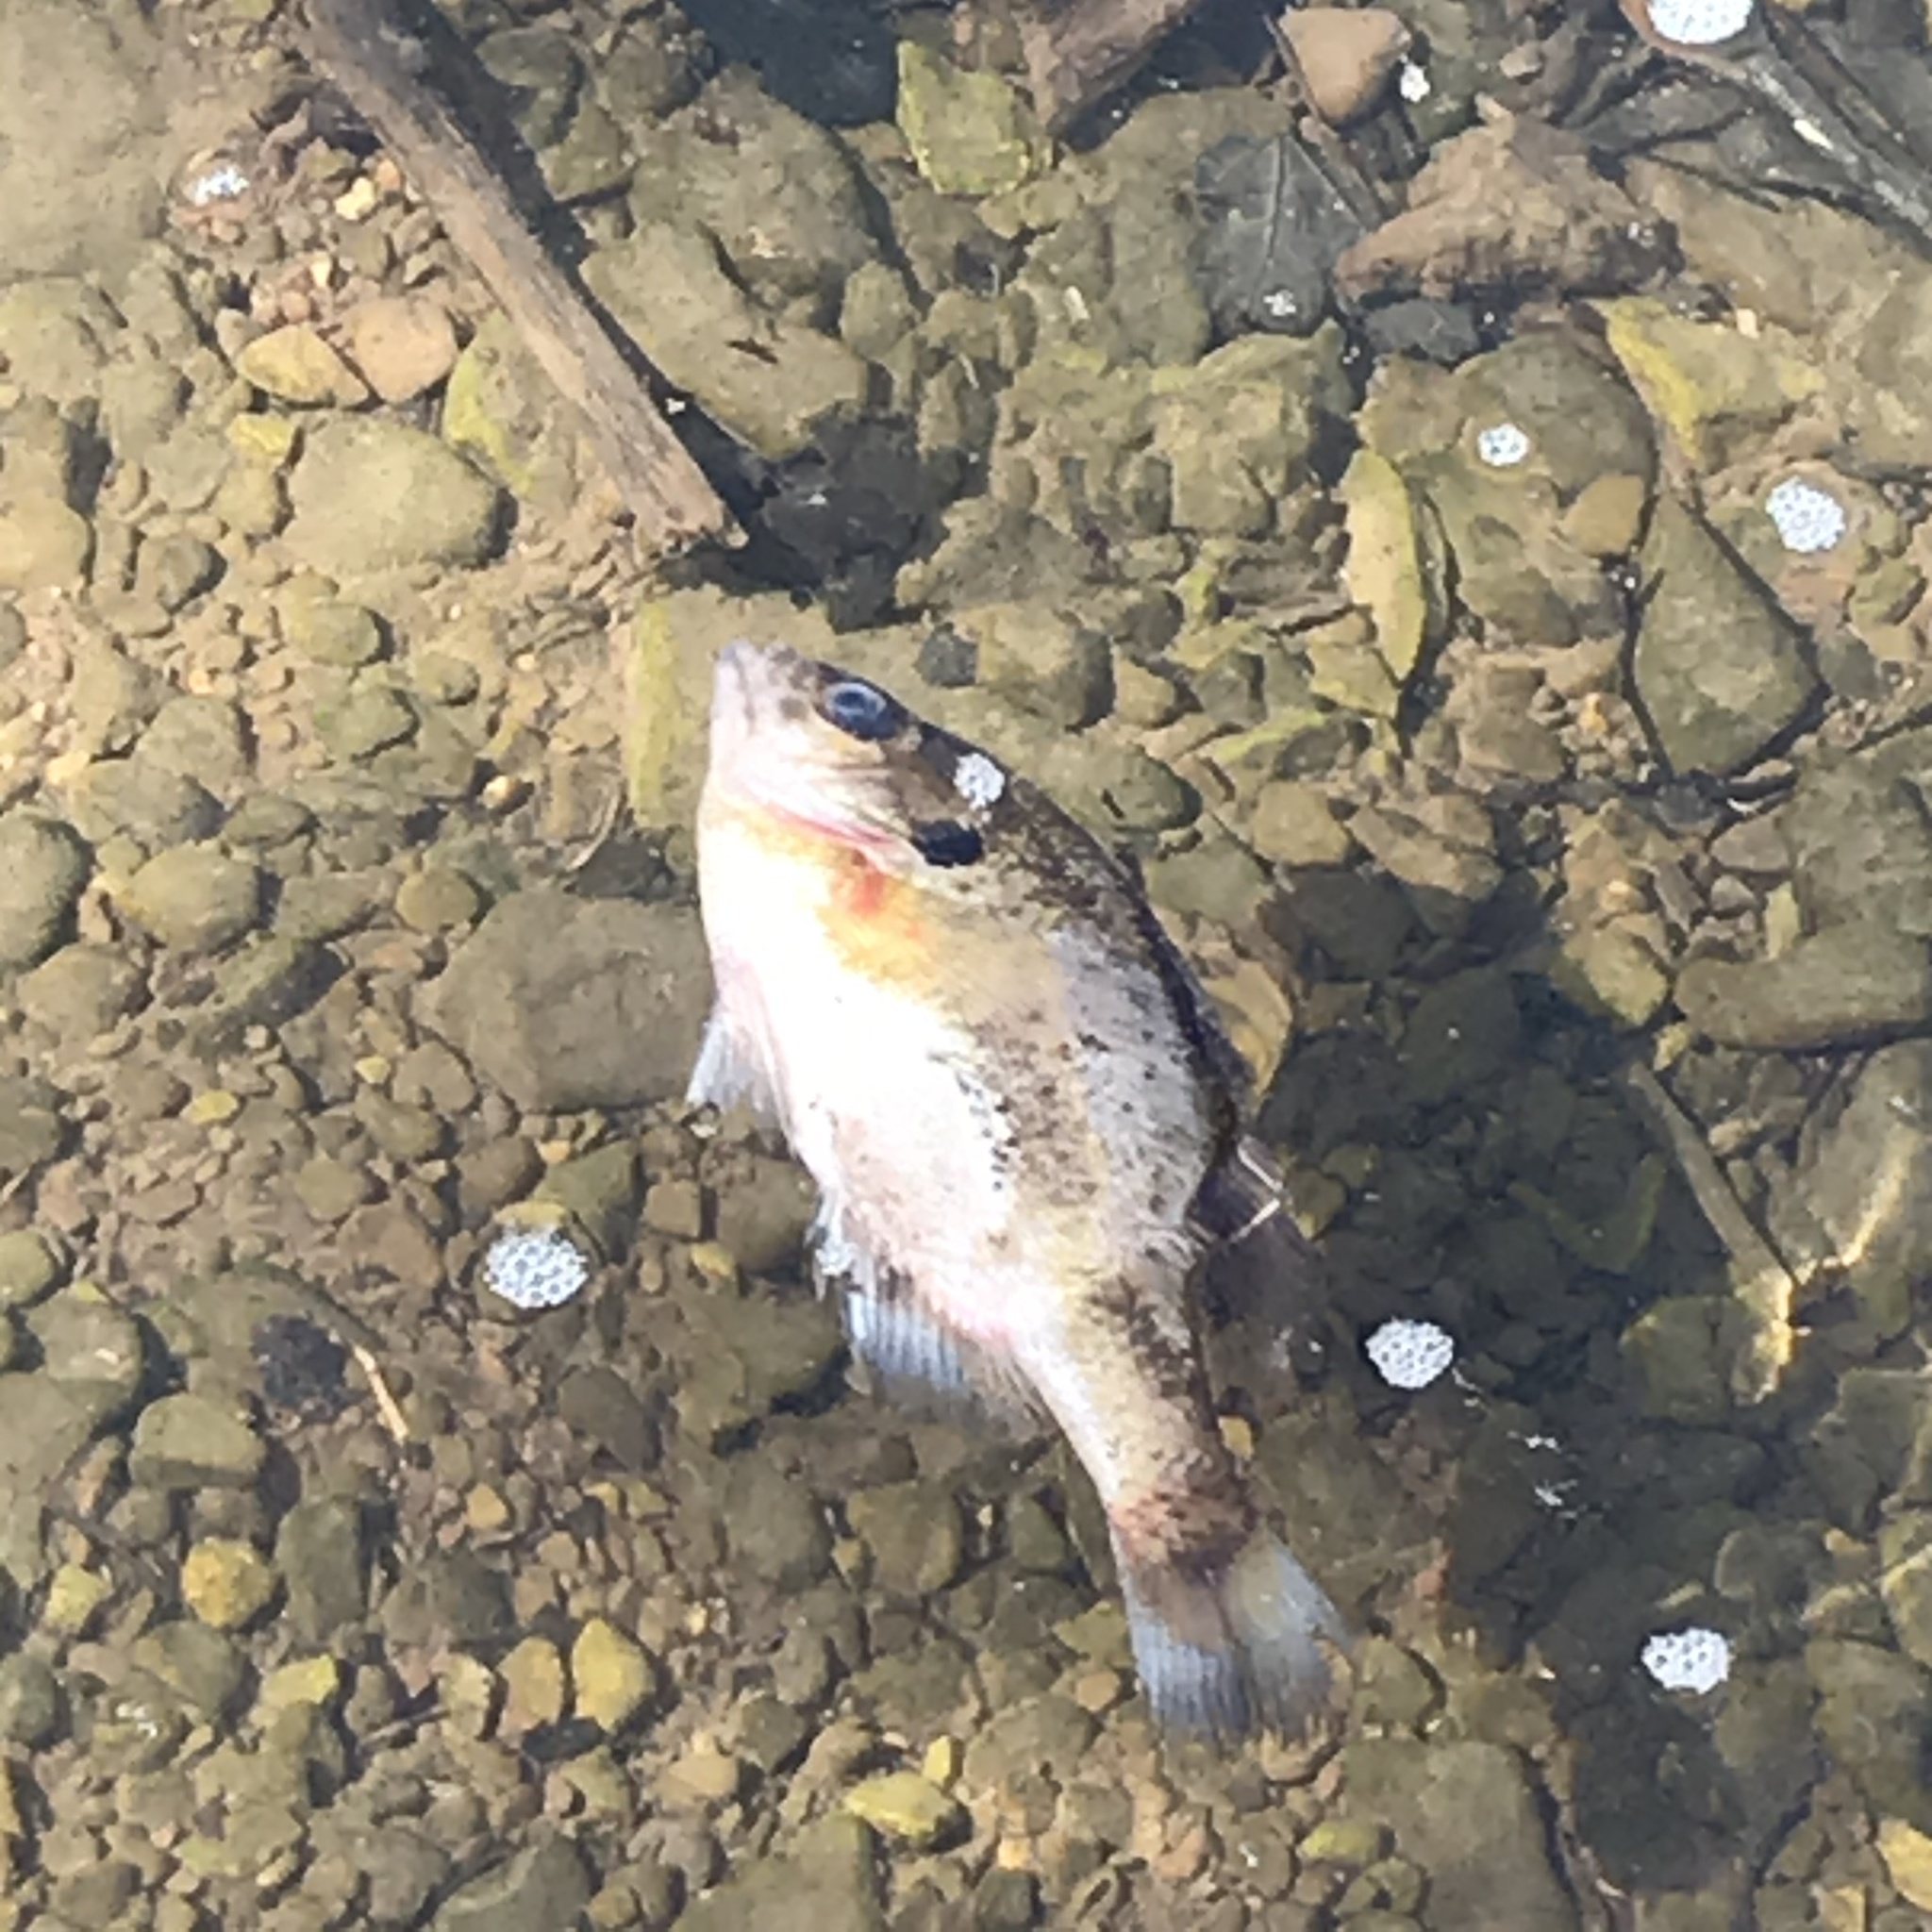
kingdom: Animalia
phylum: Chordata
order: Perciformes
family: Centrarchidae
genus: Lepomis
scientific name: Lepomis macrochirus
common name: Bluegill
